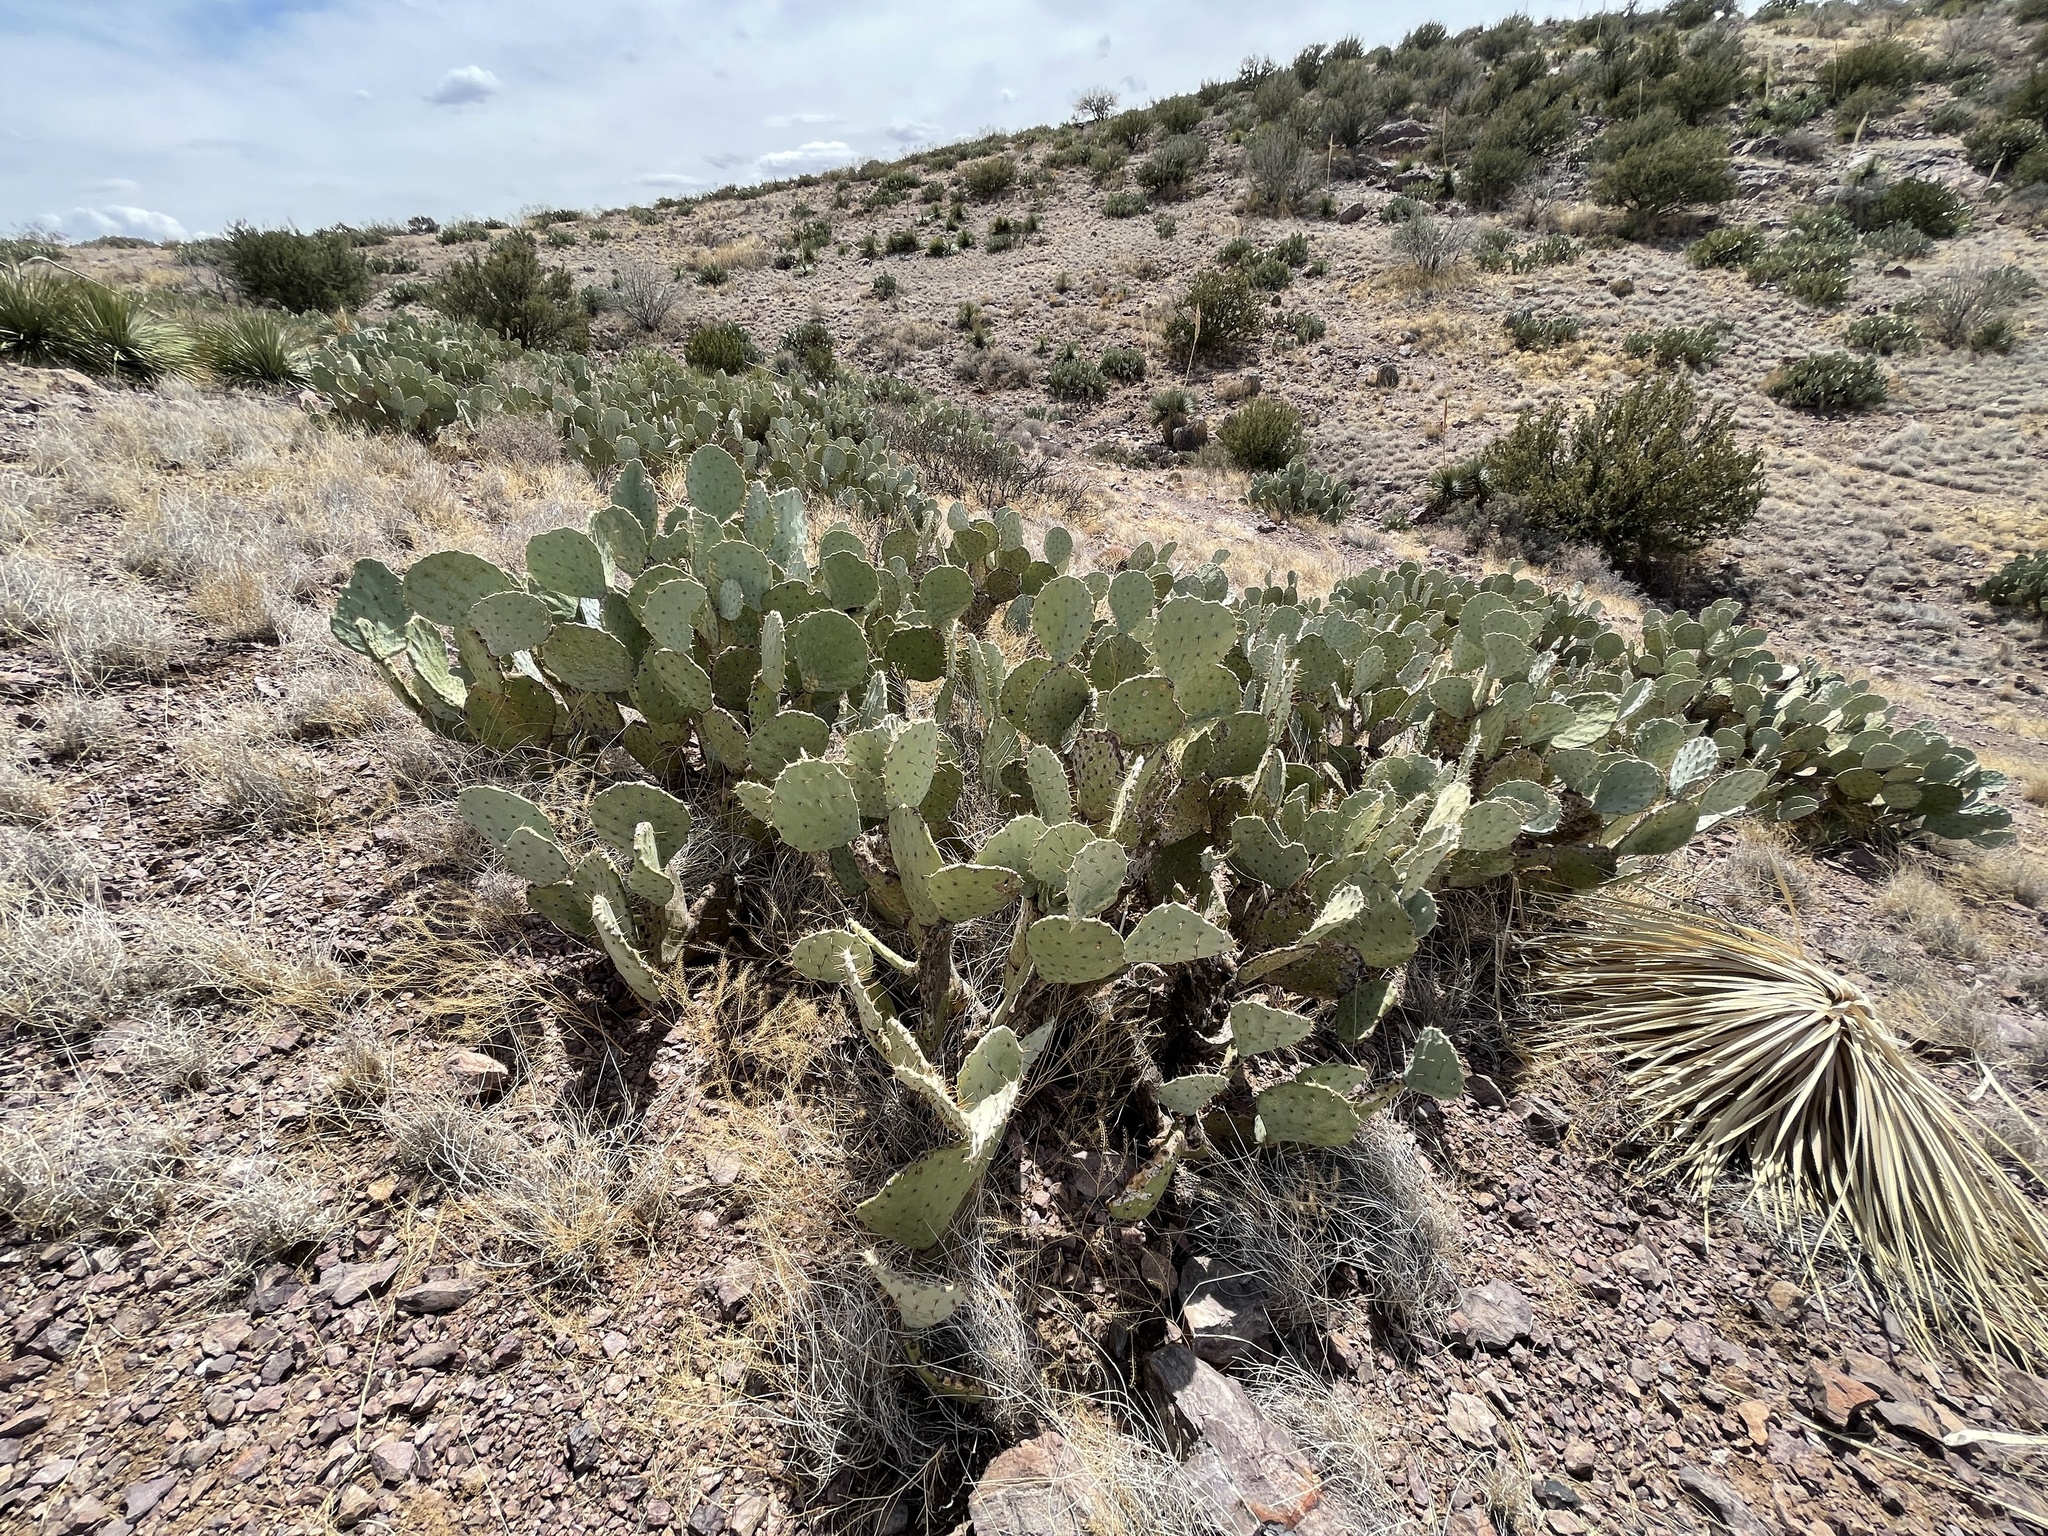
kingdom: Plantae
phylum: Tracheophyta
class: Magnoliopsida
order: Caryophyllales
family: Cactaceae
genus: Opuntia
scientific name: Opuntia engelmannii
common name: Cactus-apple
